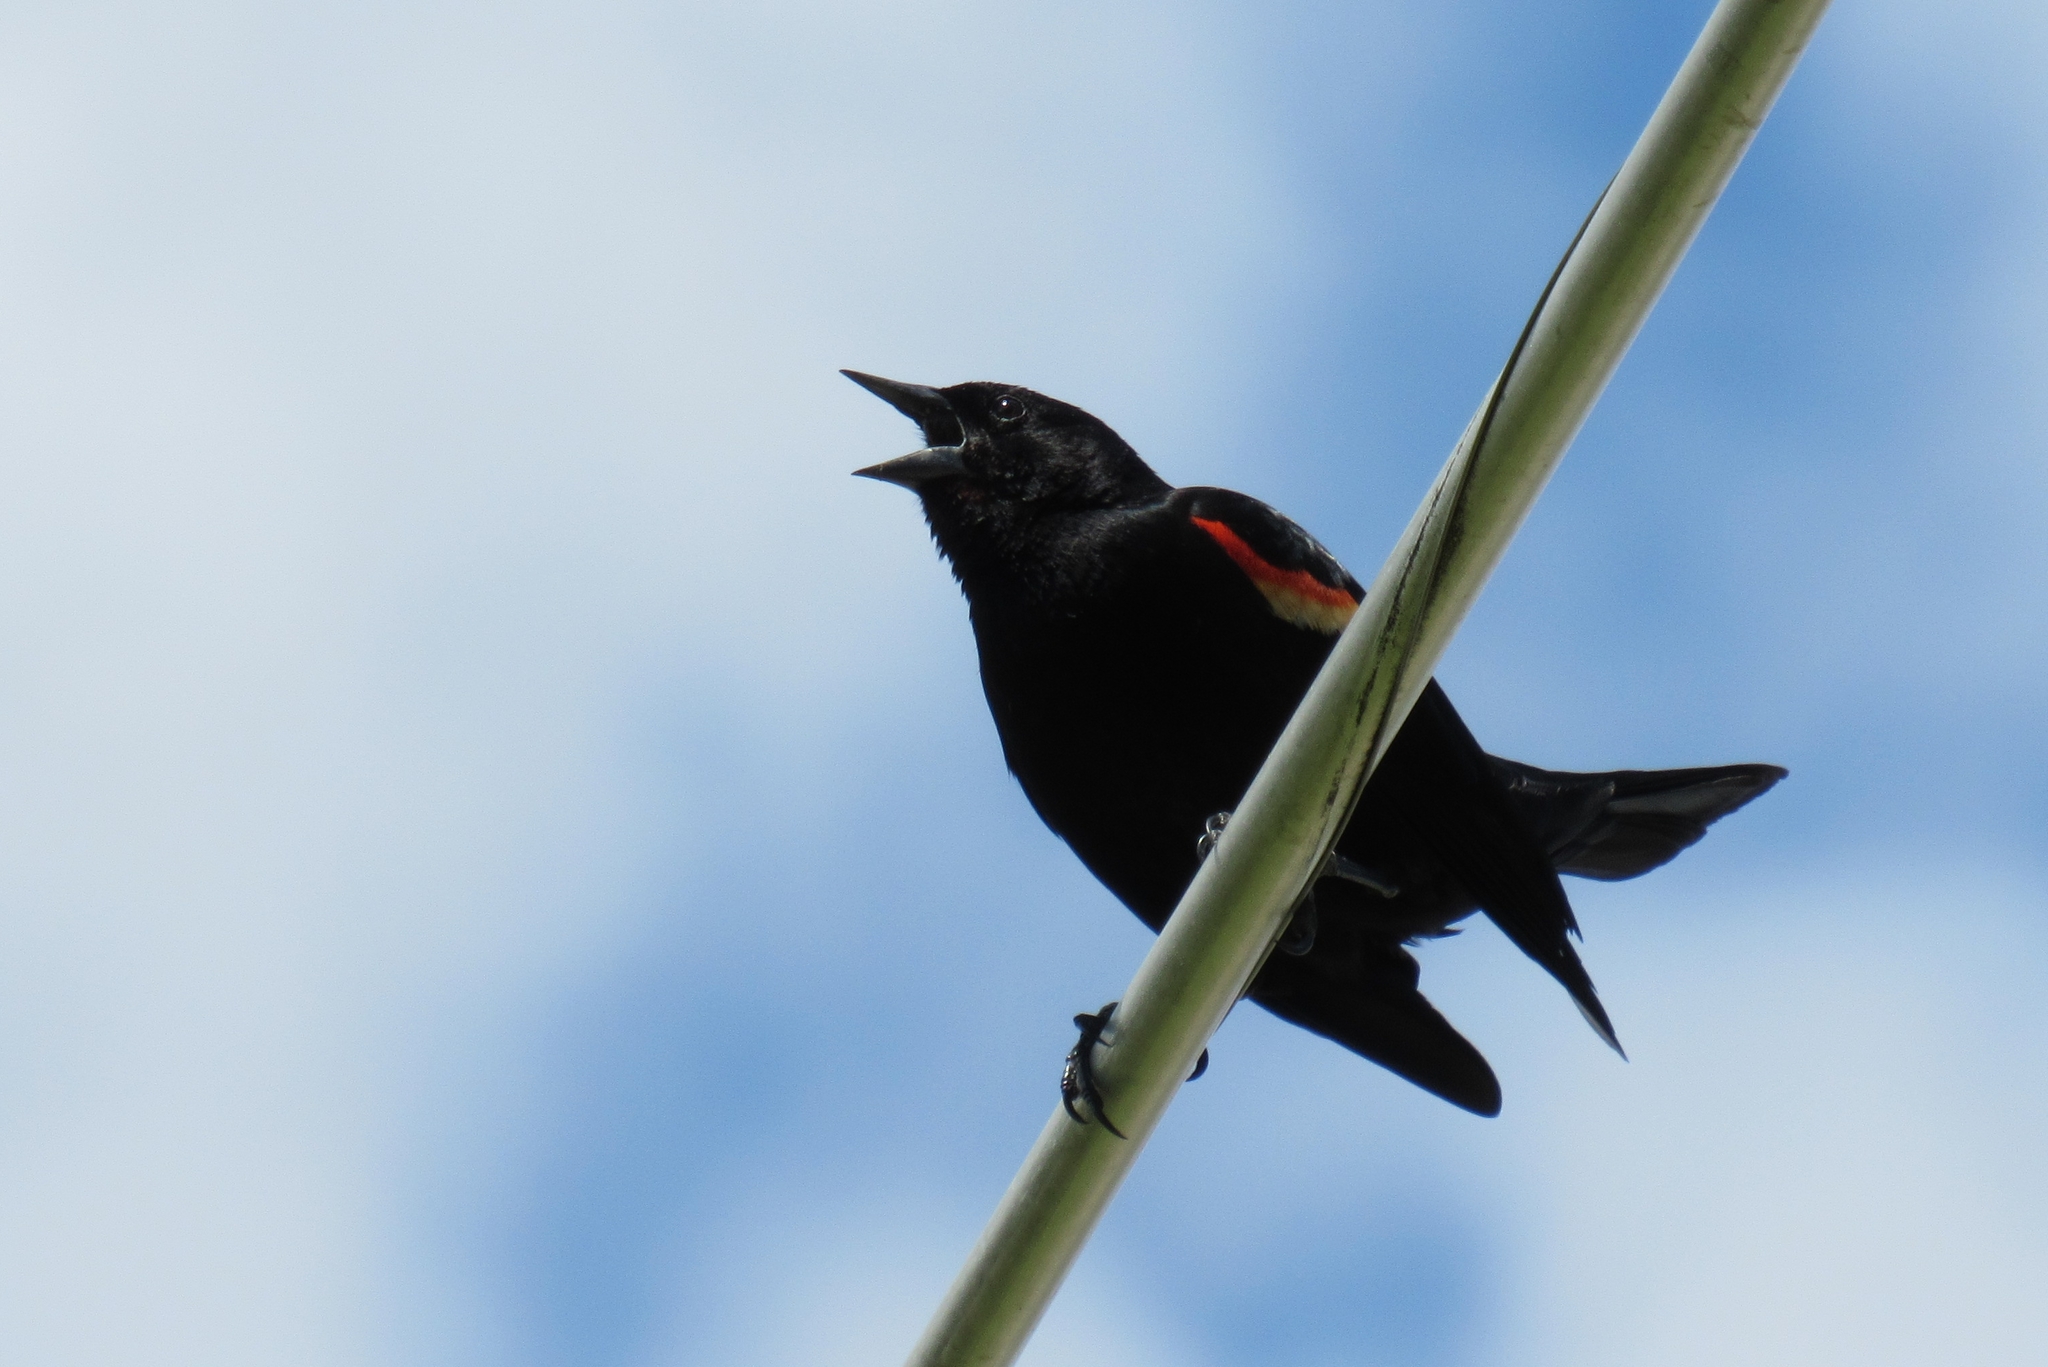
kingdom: Animalia
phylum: Chordata
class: Aves
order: Passeriformes
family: Icteridae
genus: Agelaius
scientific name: Agelaius phoeniceus
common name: Red-winged blackbird
